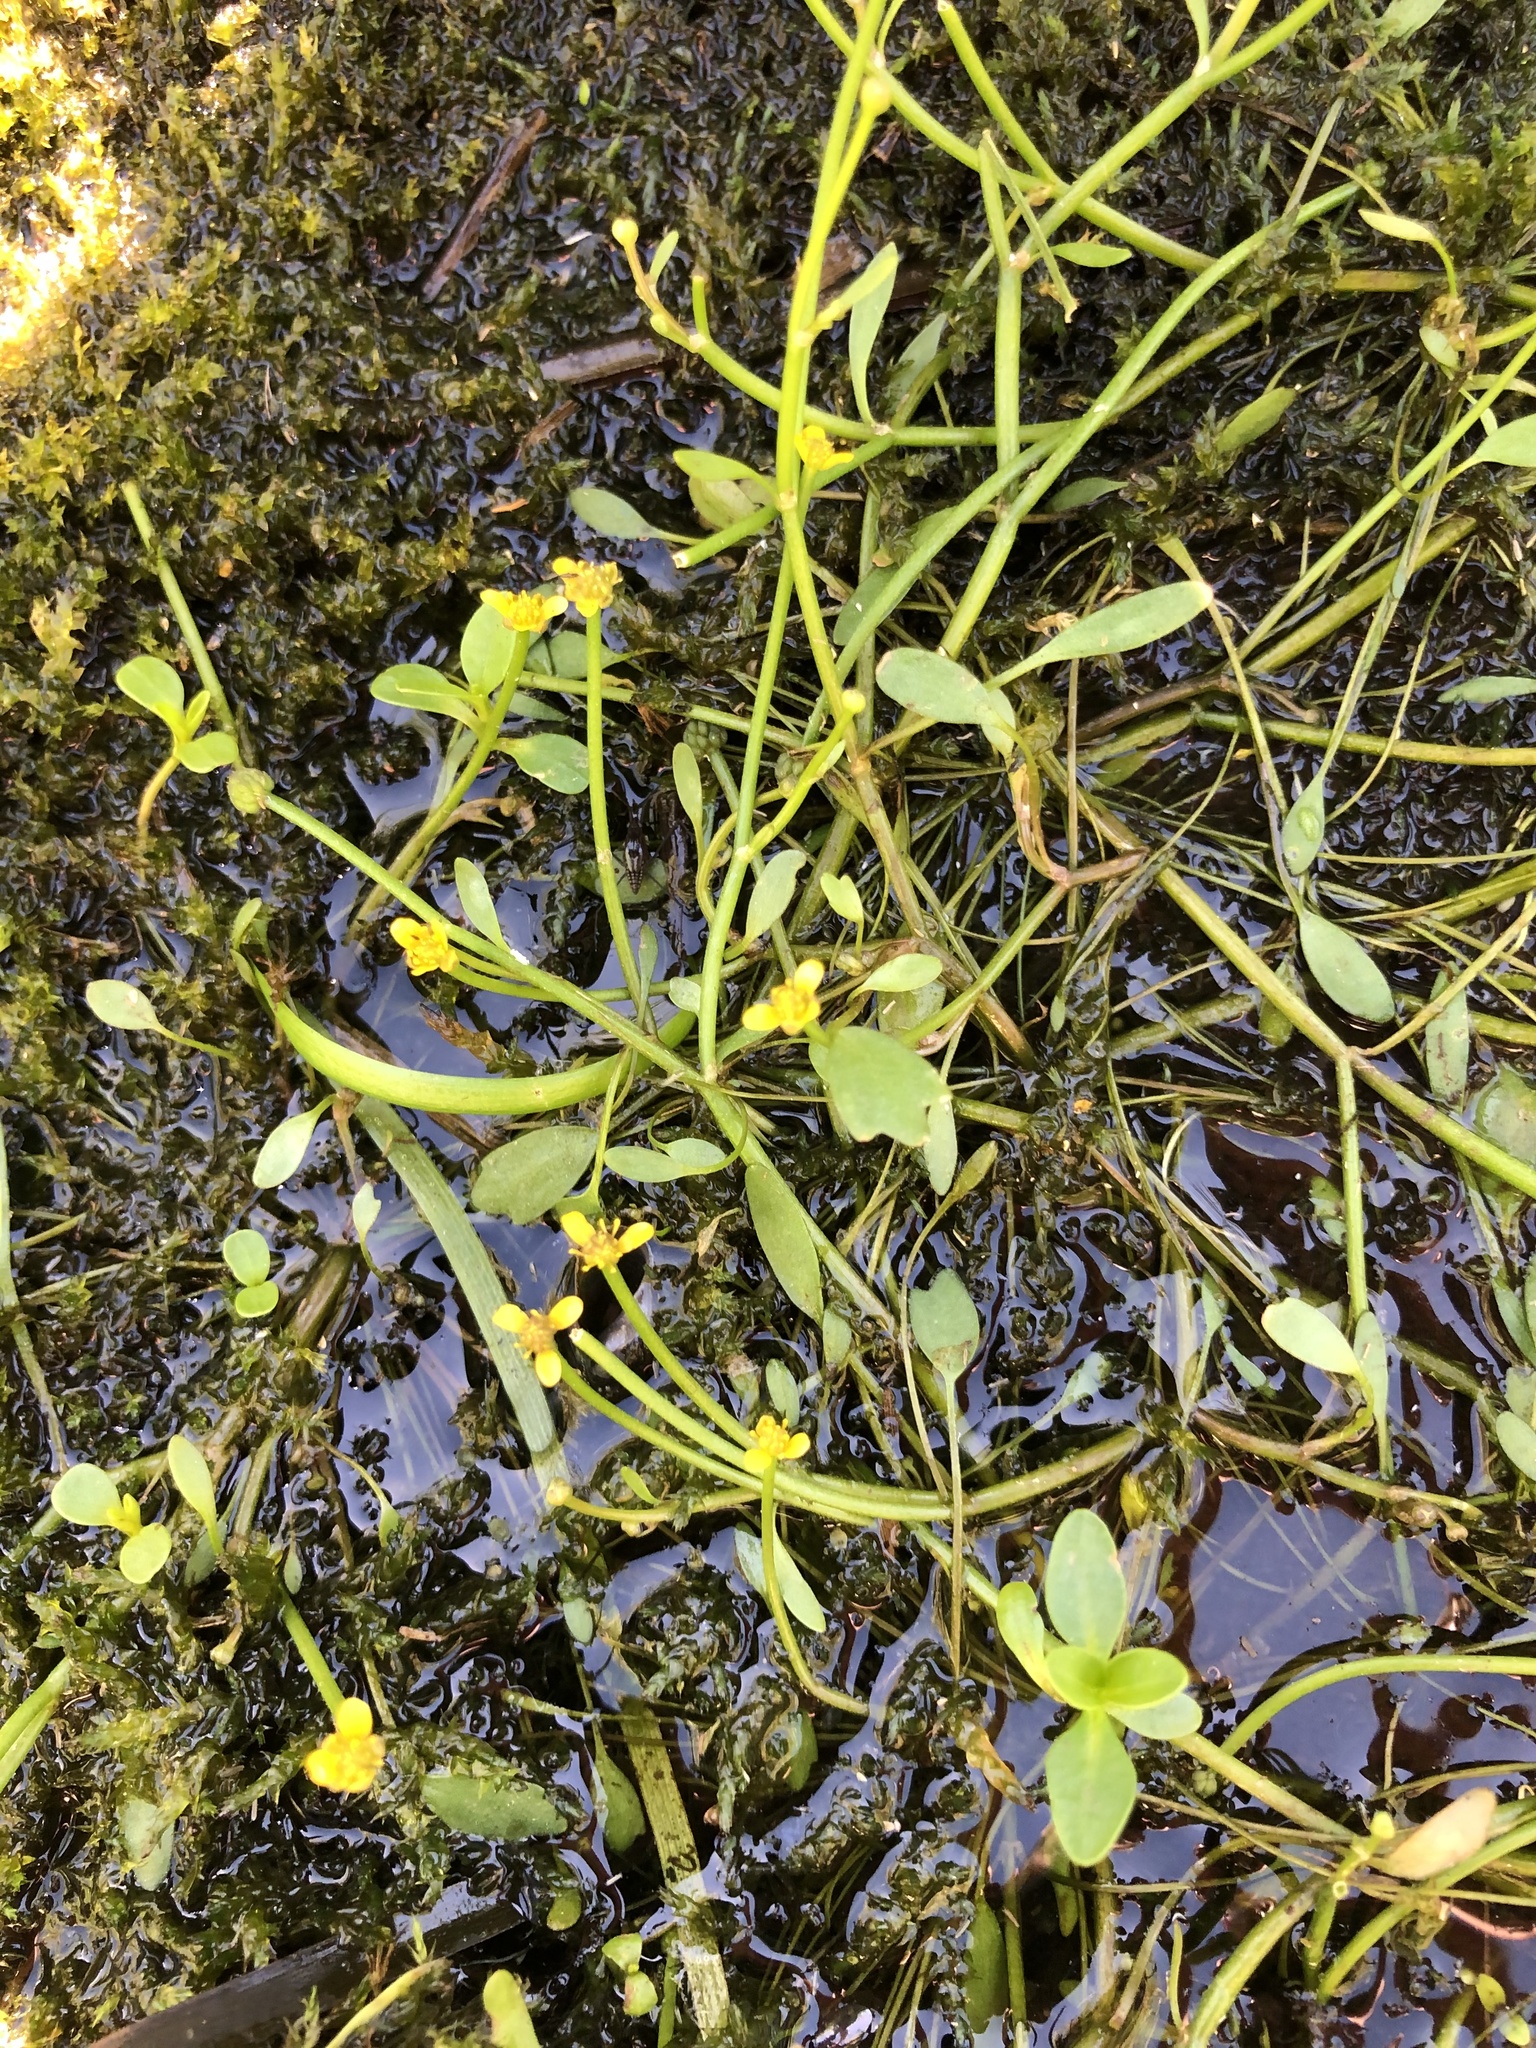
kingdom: Plantae
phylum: Tracheophyta
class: Magnoliopsida
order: Ranunculales
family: Ranunculaceae
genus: Ranunculus
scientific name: Ranunculus flammula
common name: Lesser spearwort
